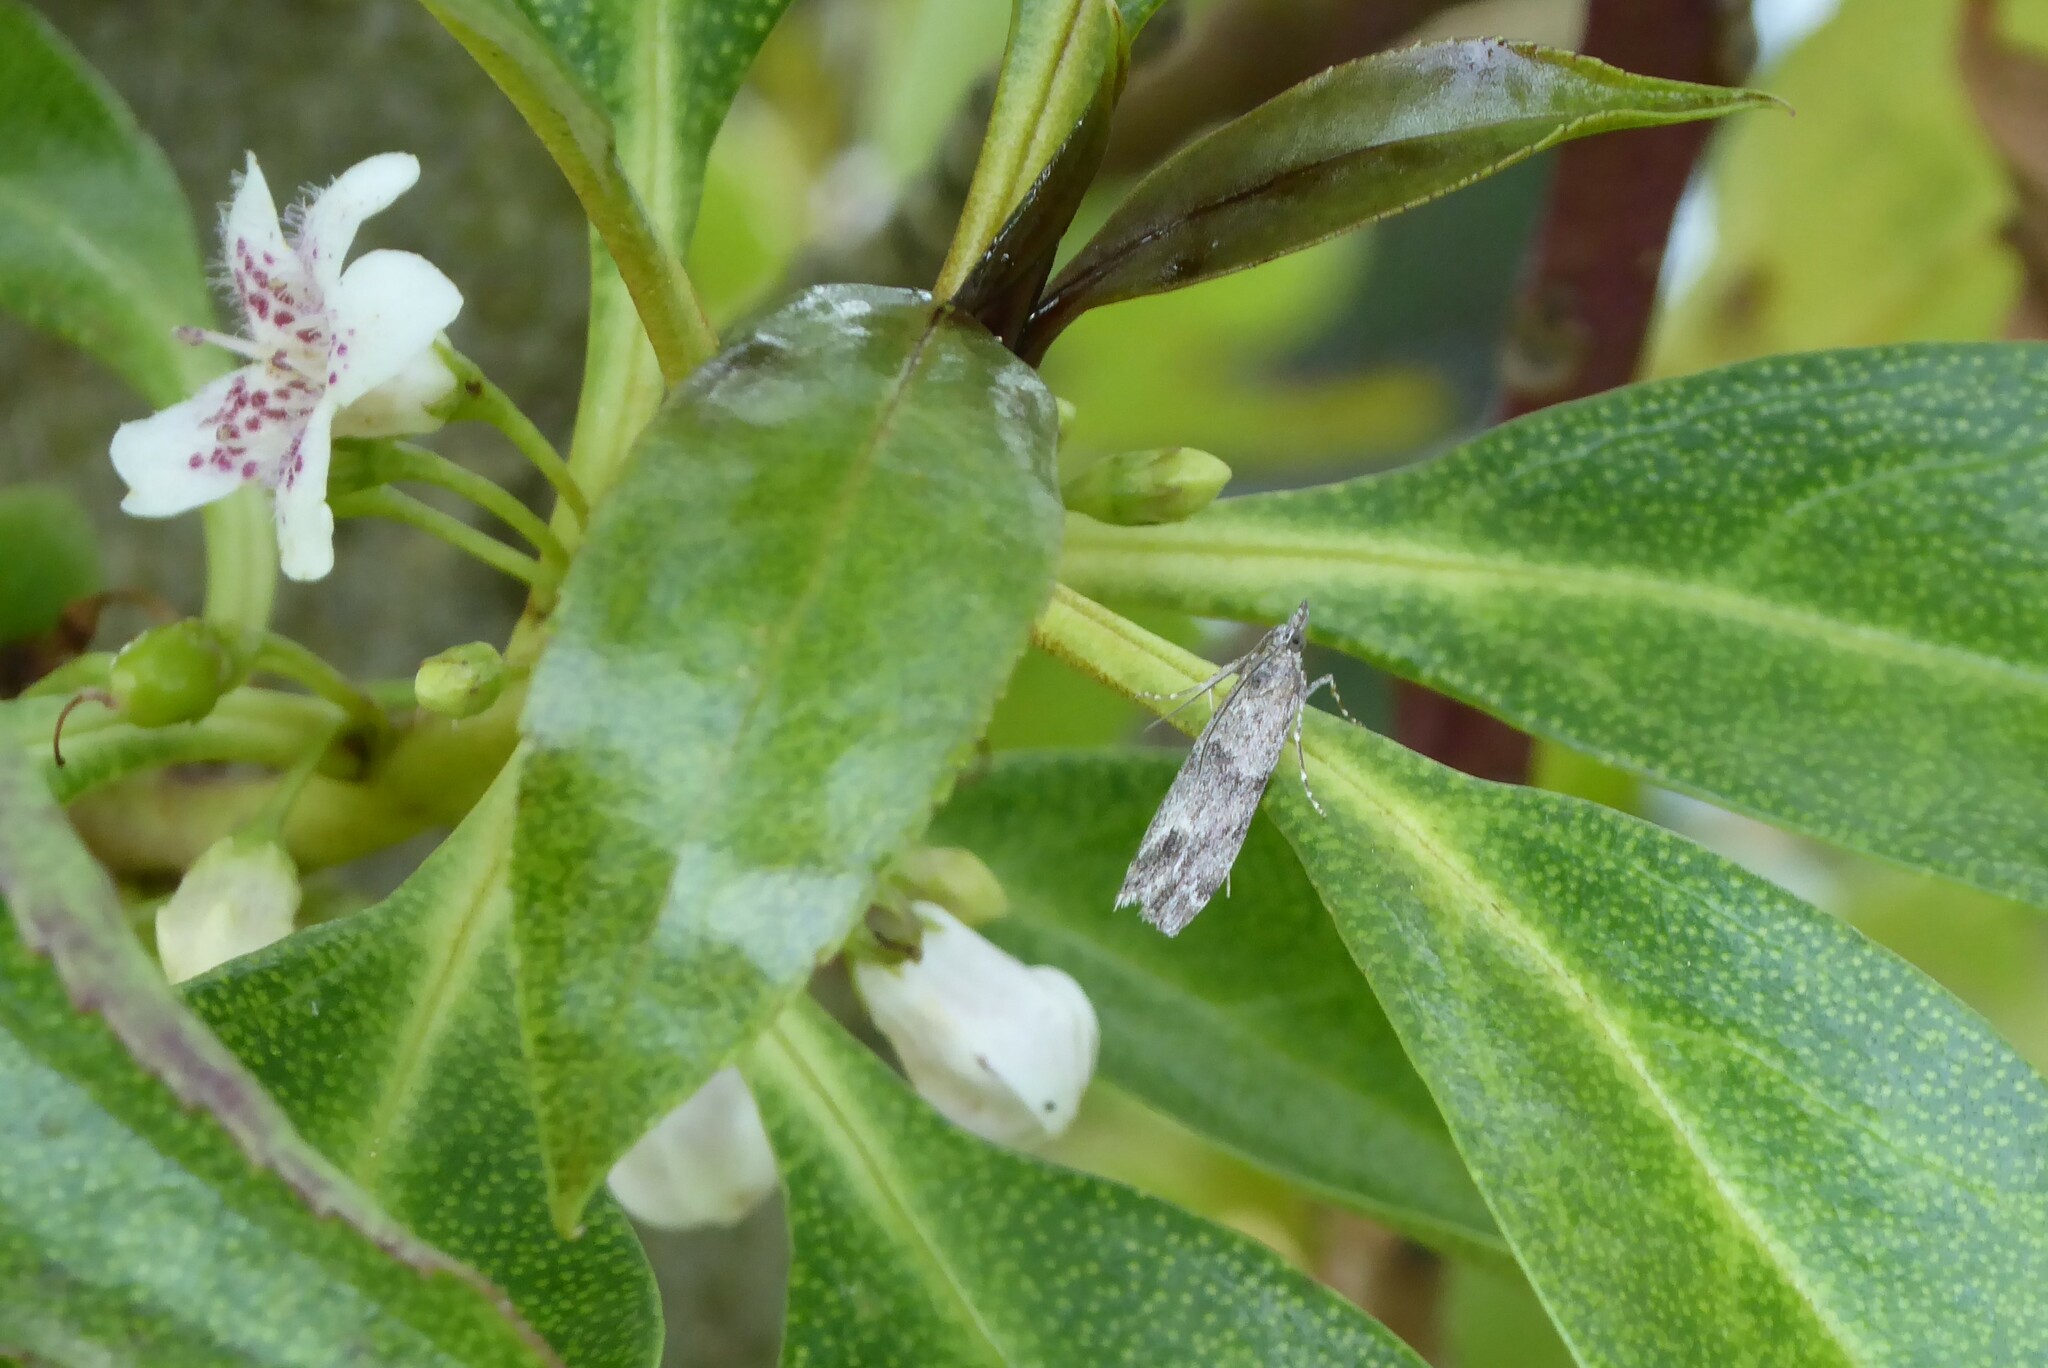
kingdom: Animalia
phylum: Arthropoda
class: Insecta
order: Lepidoptera
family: Crambidae
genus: Eudonia
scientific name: Eudonia rakaiensis
